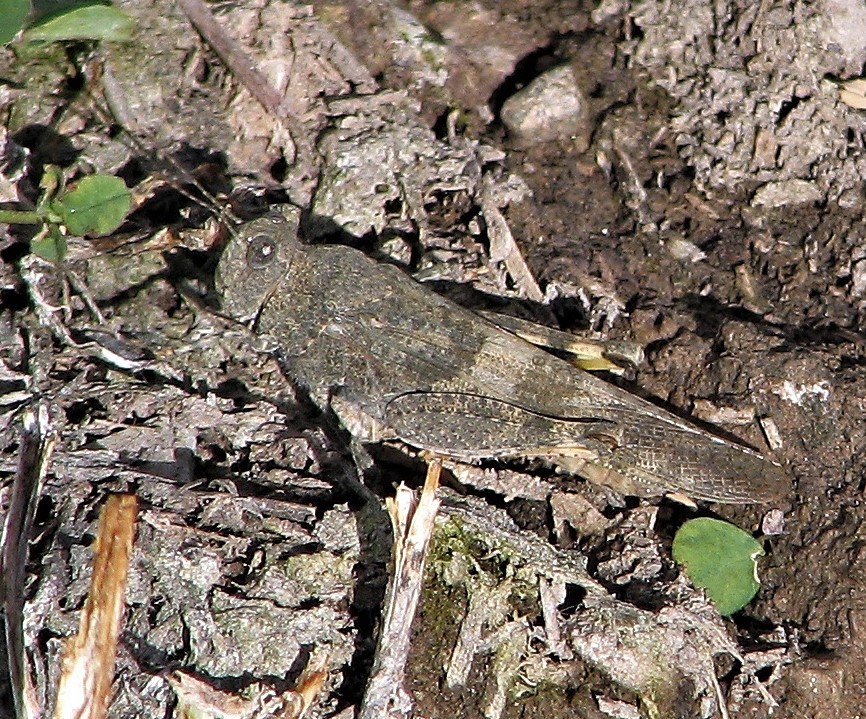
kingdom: Animalia
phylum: Arthropoda
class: Insecta
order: Orthoptera
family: Acrididae
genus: Trimerotropis
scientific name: Trimerotropis pallidipennis
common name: Pallid-winged grasshopper
